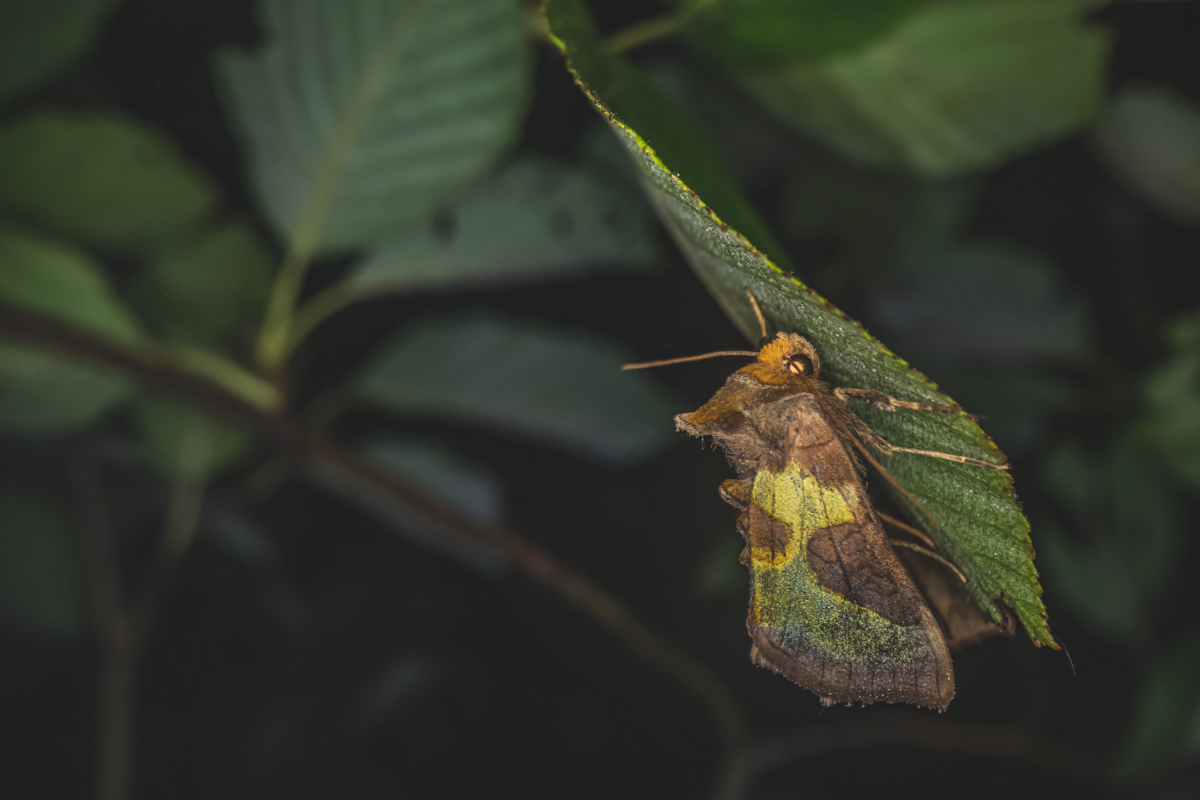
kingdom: Animalia
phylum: Arthropoda
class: Insecta
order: Lepidoptera
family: Noctuidae
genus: Diachrysia
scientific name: Diachrysia stenochrysis
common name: Cryptic burnished brass
